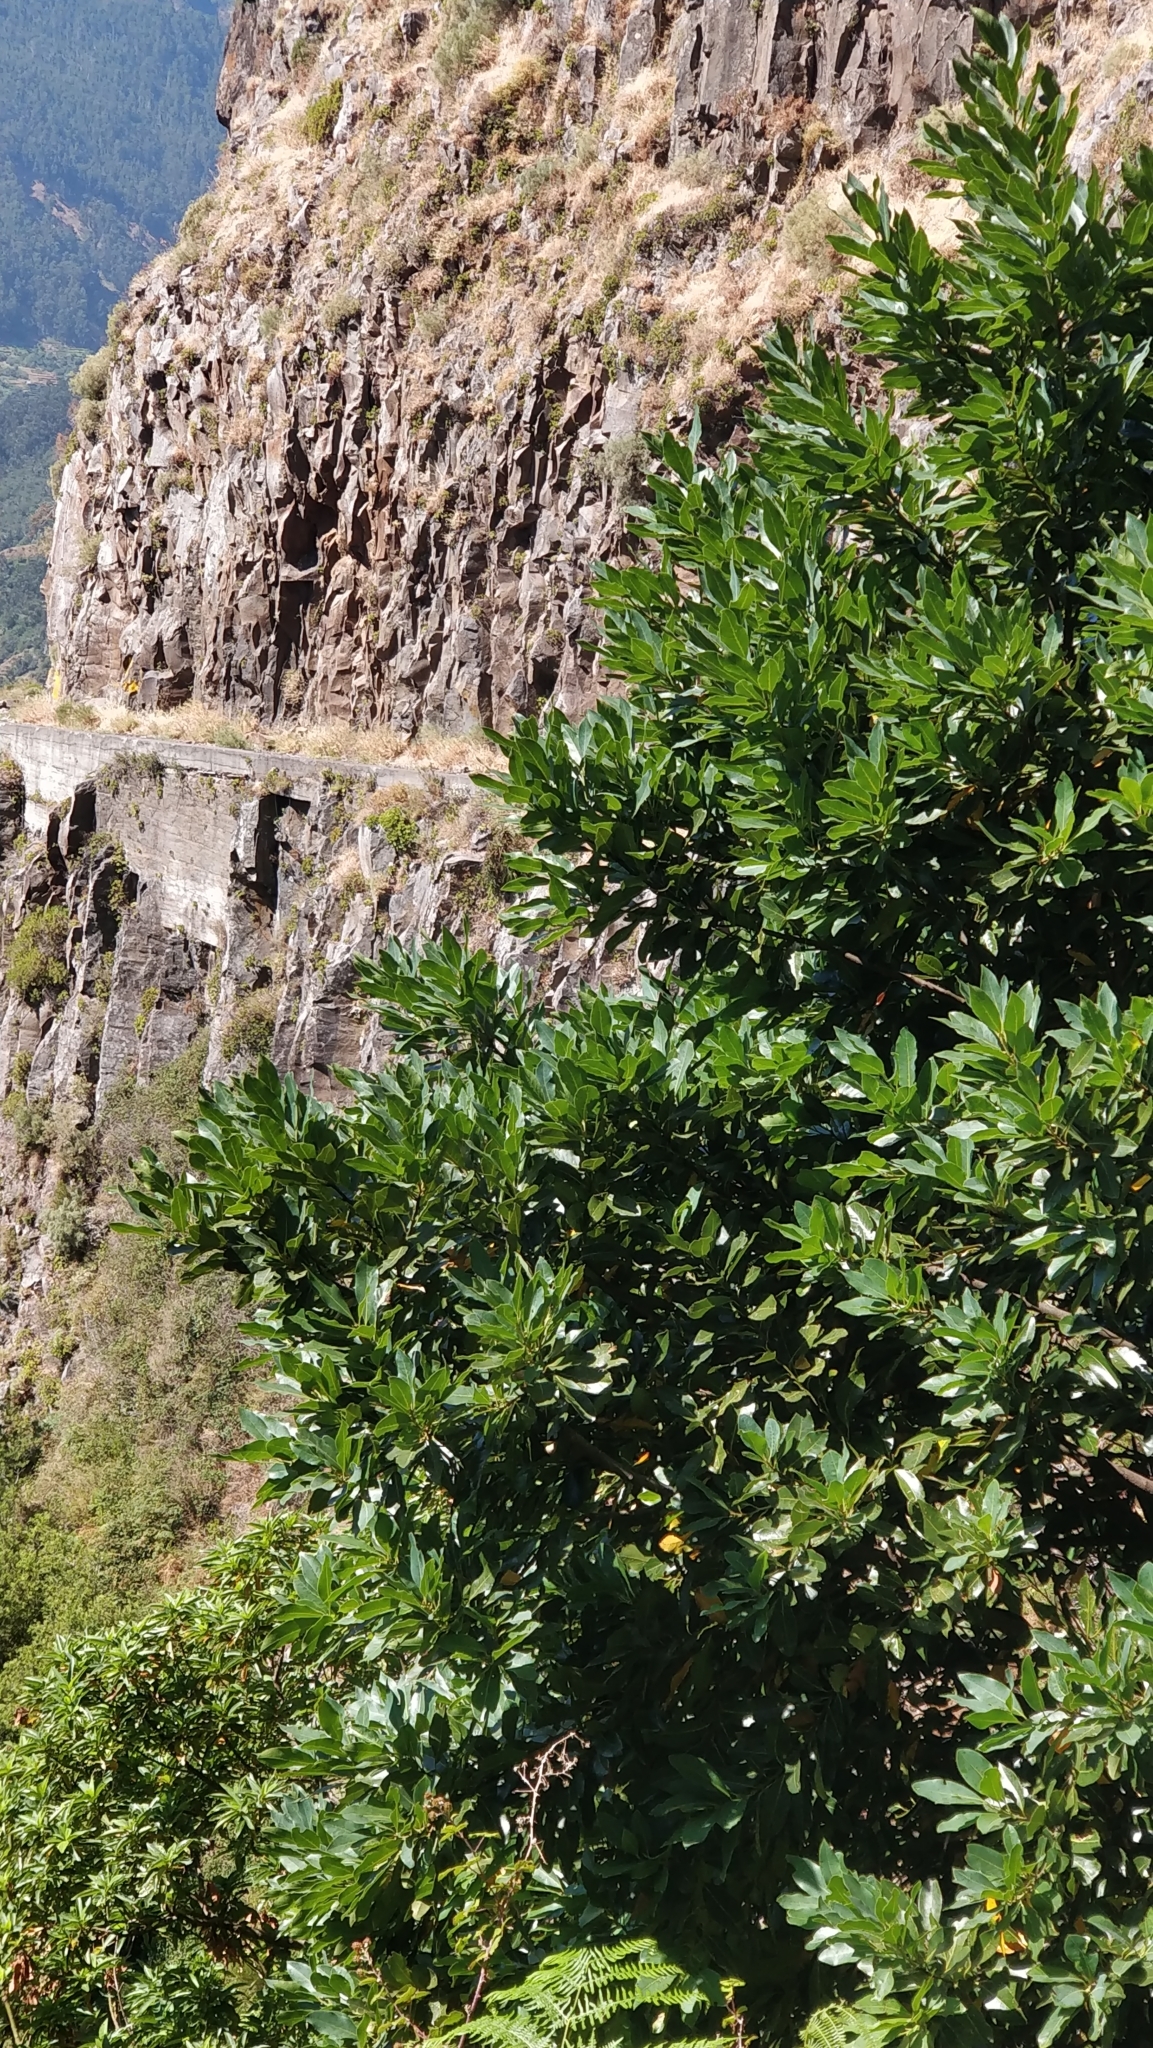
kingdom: Plantae
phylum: Tracheophyta
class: Magnoliopsida
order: Laurales
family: Lauraceae
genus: Laurus
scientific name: Laurus novocanariensis
